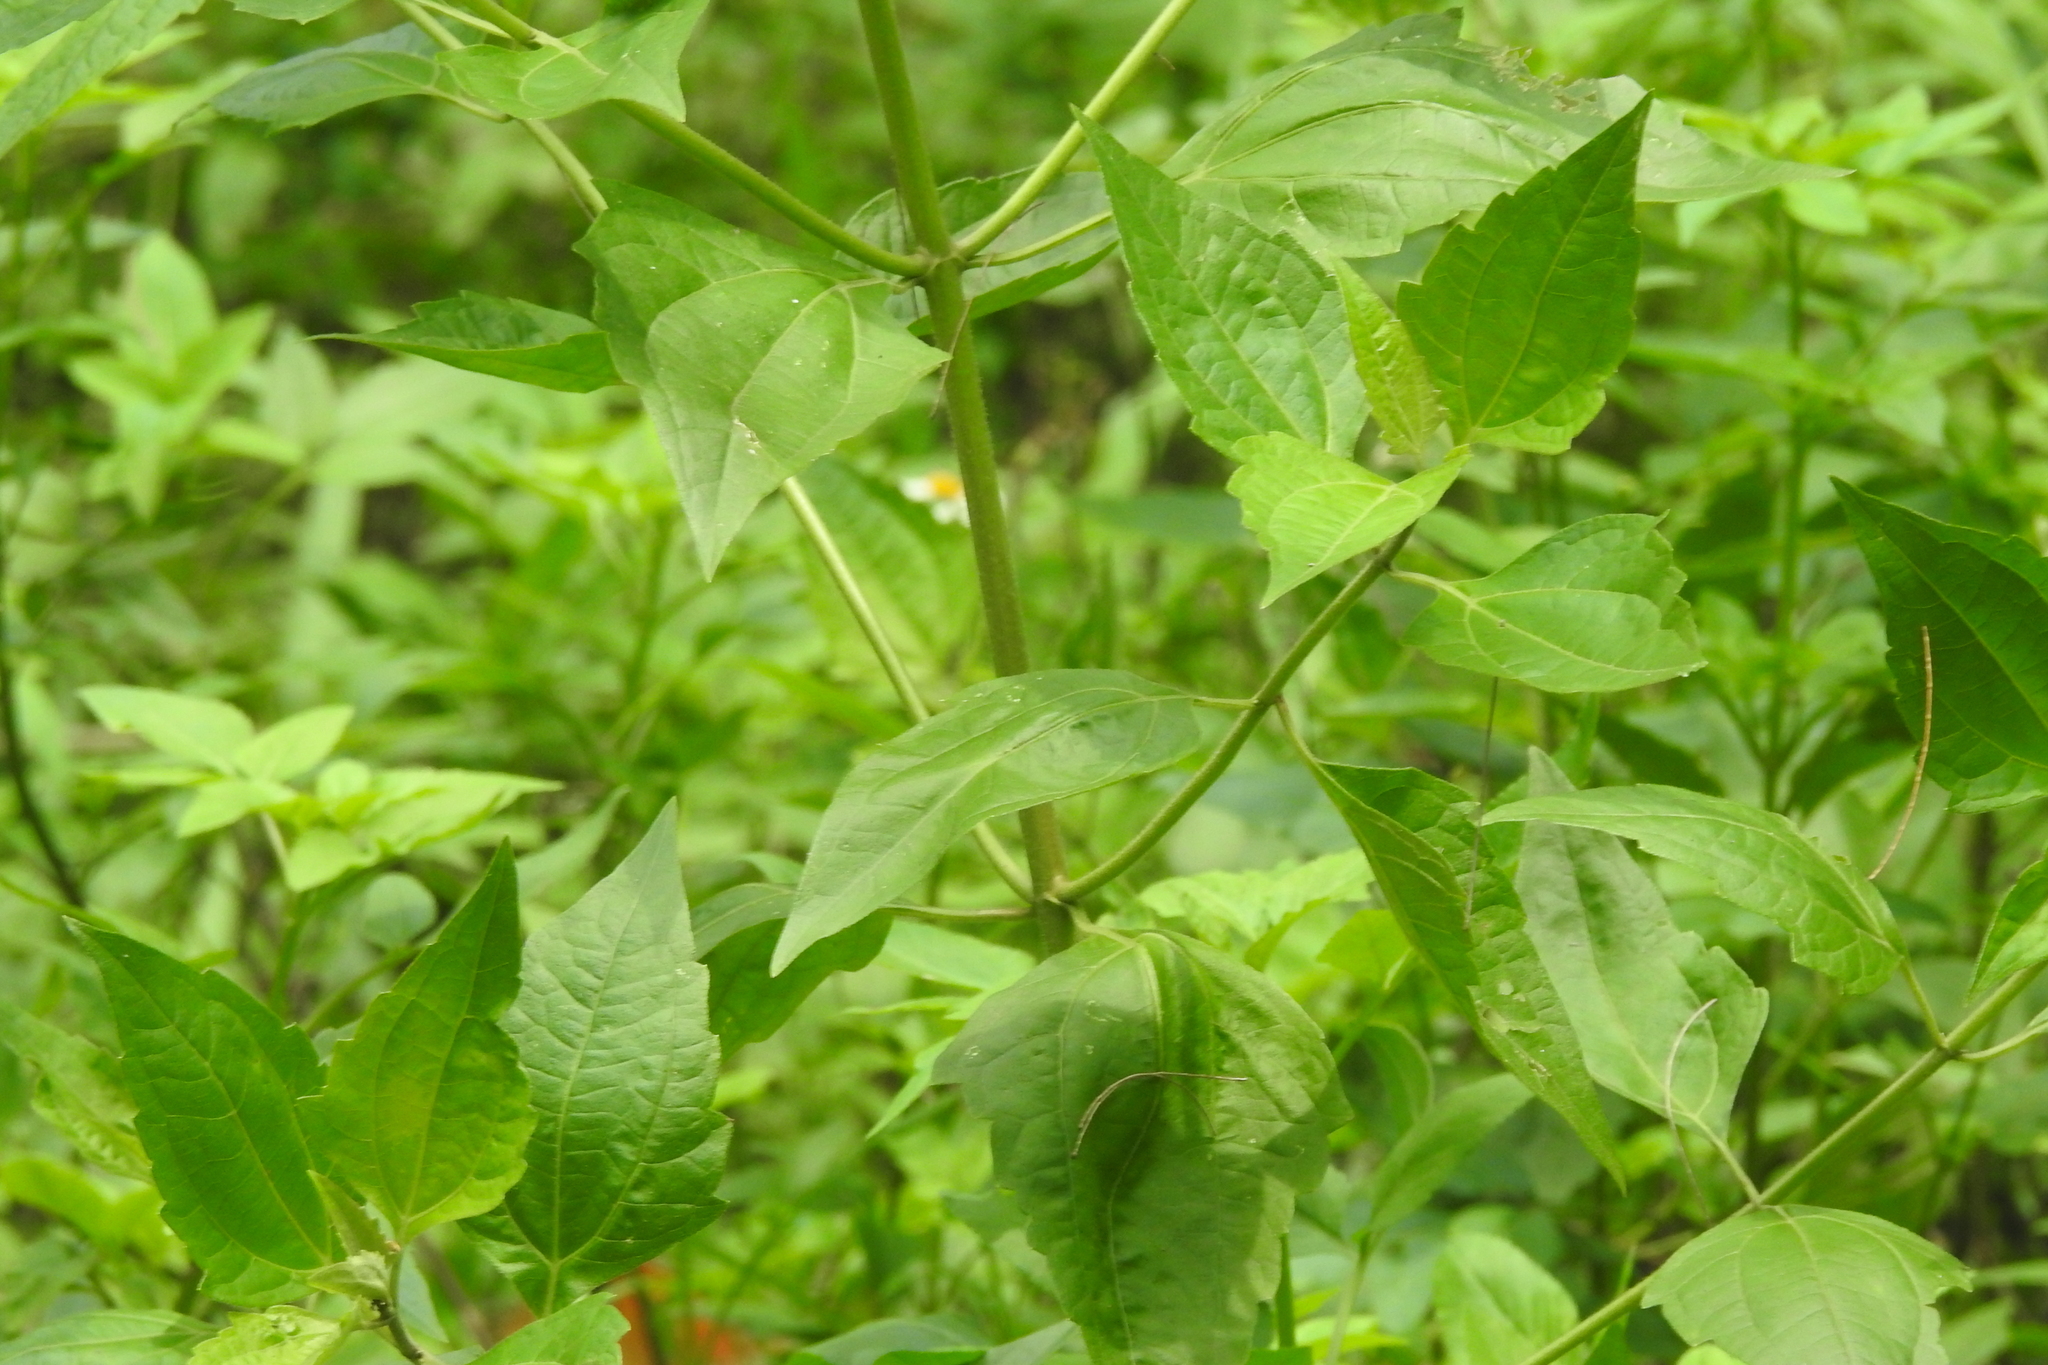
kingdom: Plantae
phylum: Tracheophyta
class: Magnoliopsida
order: Asterales
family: Asteraceae
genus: Chromolaena
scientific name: Chromolaena odorata
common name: Siamweed
